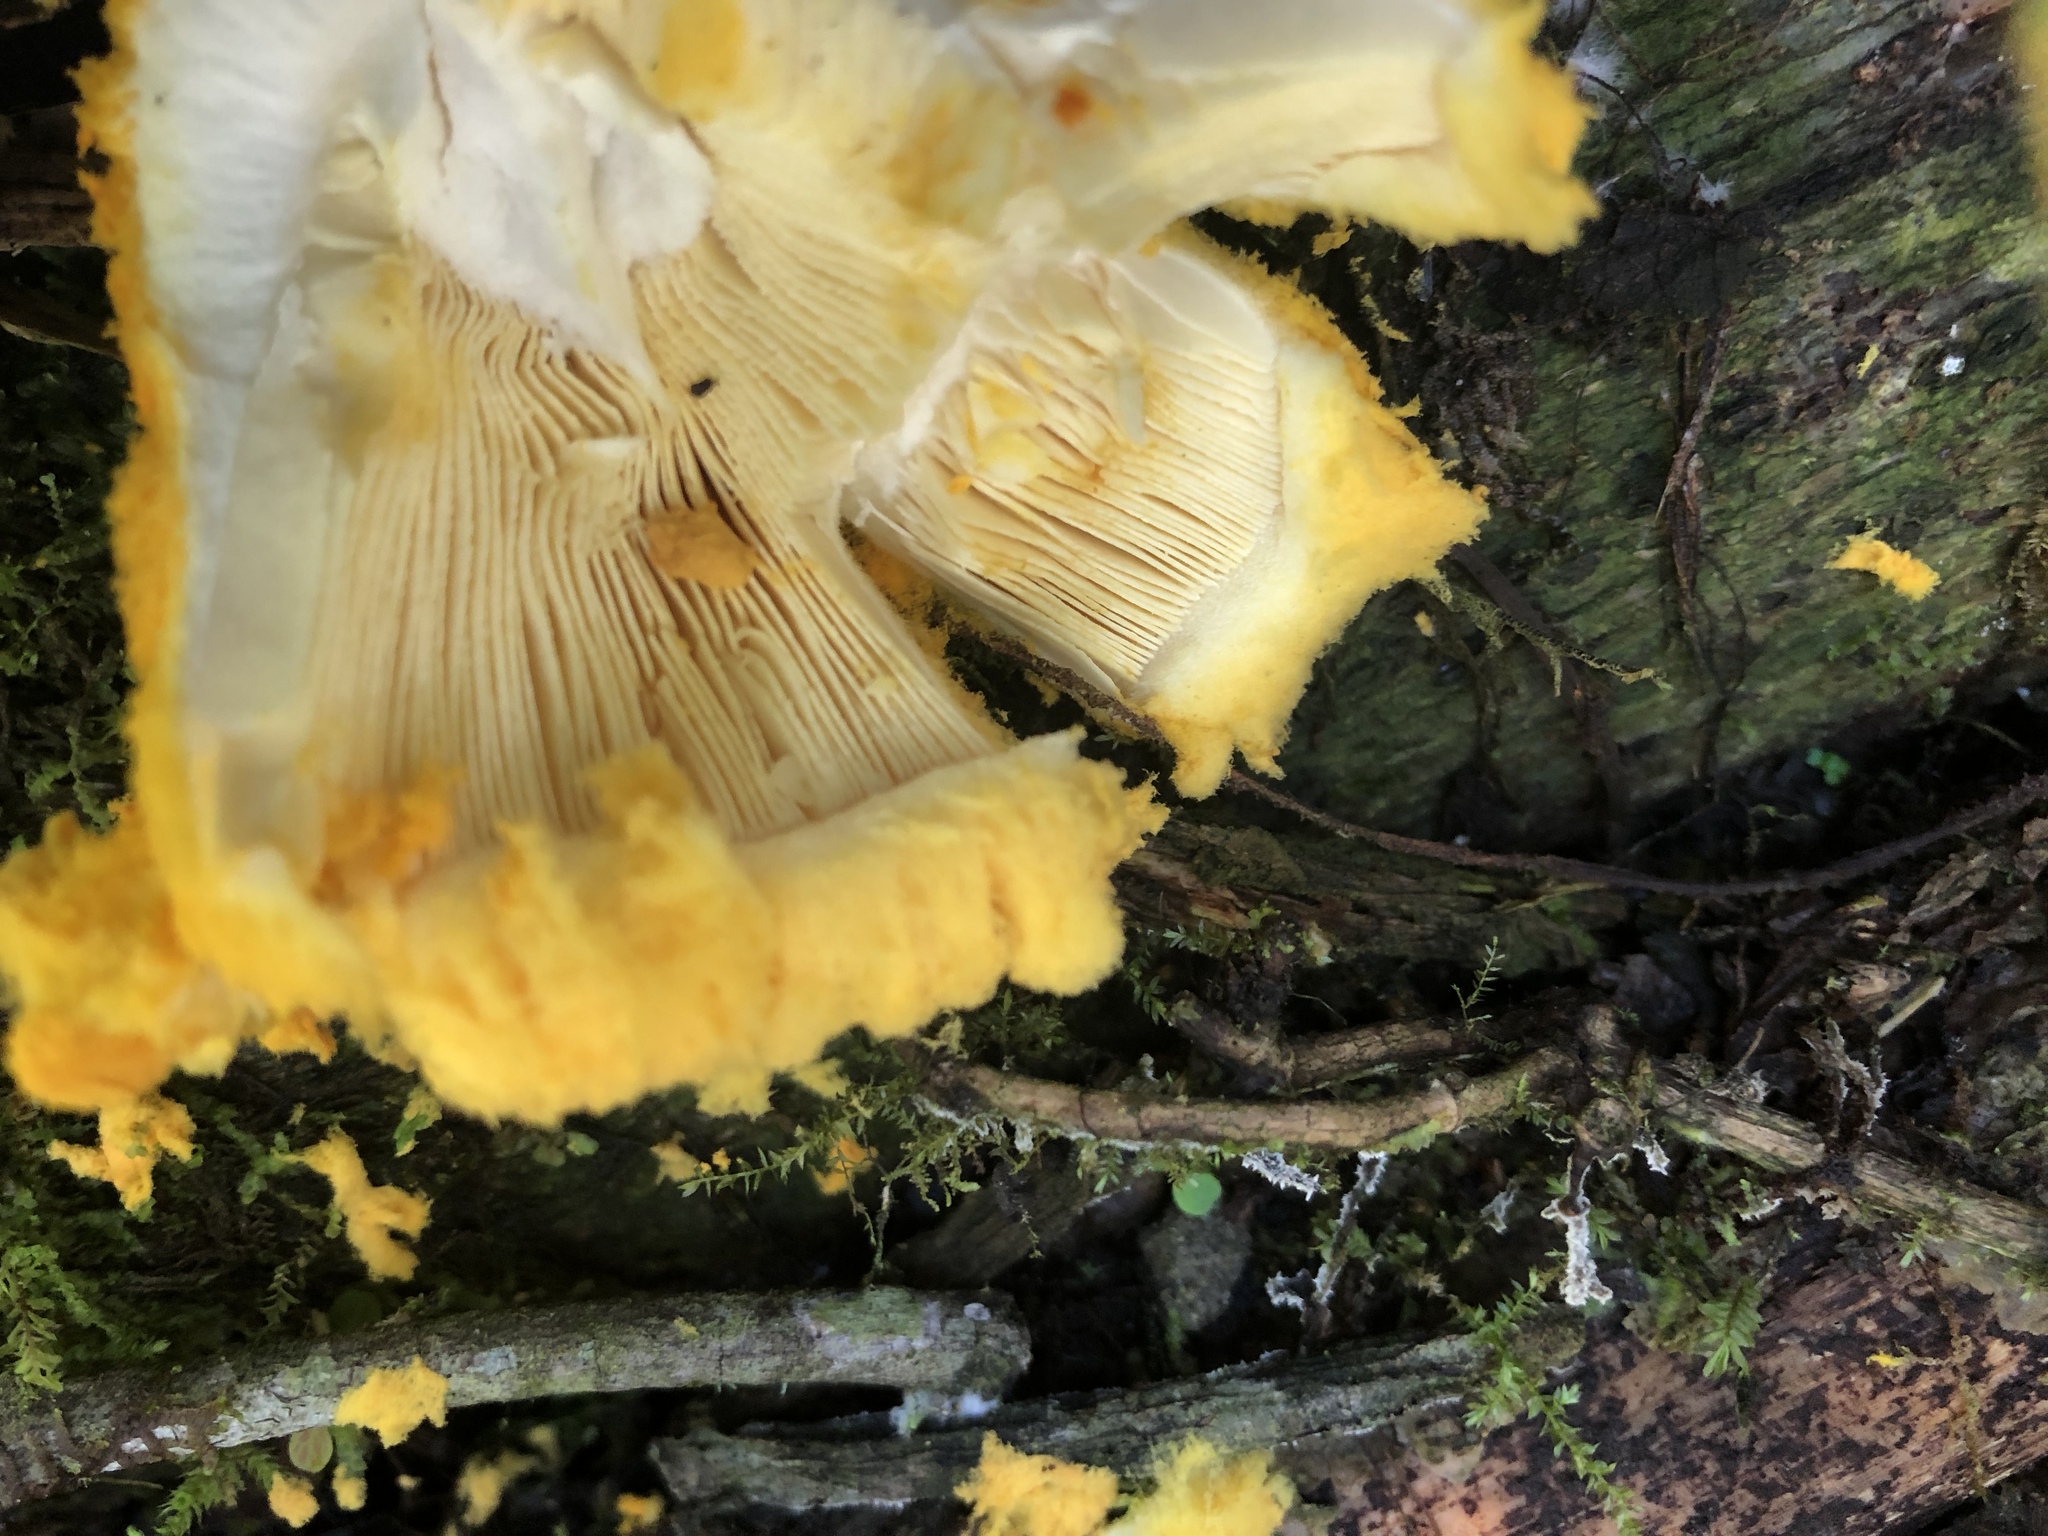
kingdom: Fungi
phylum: Basidiomycota
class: Agaricomycetes
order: Agaricales
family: Amanitaceae
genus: Aspidella
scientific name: Aspidella aureofloccosa
